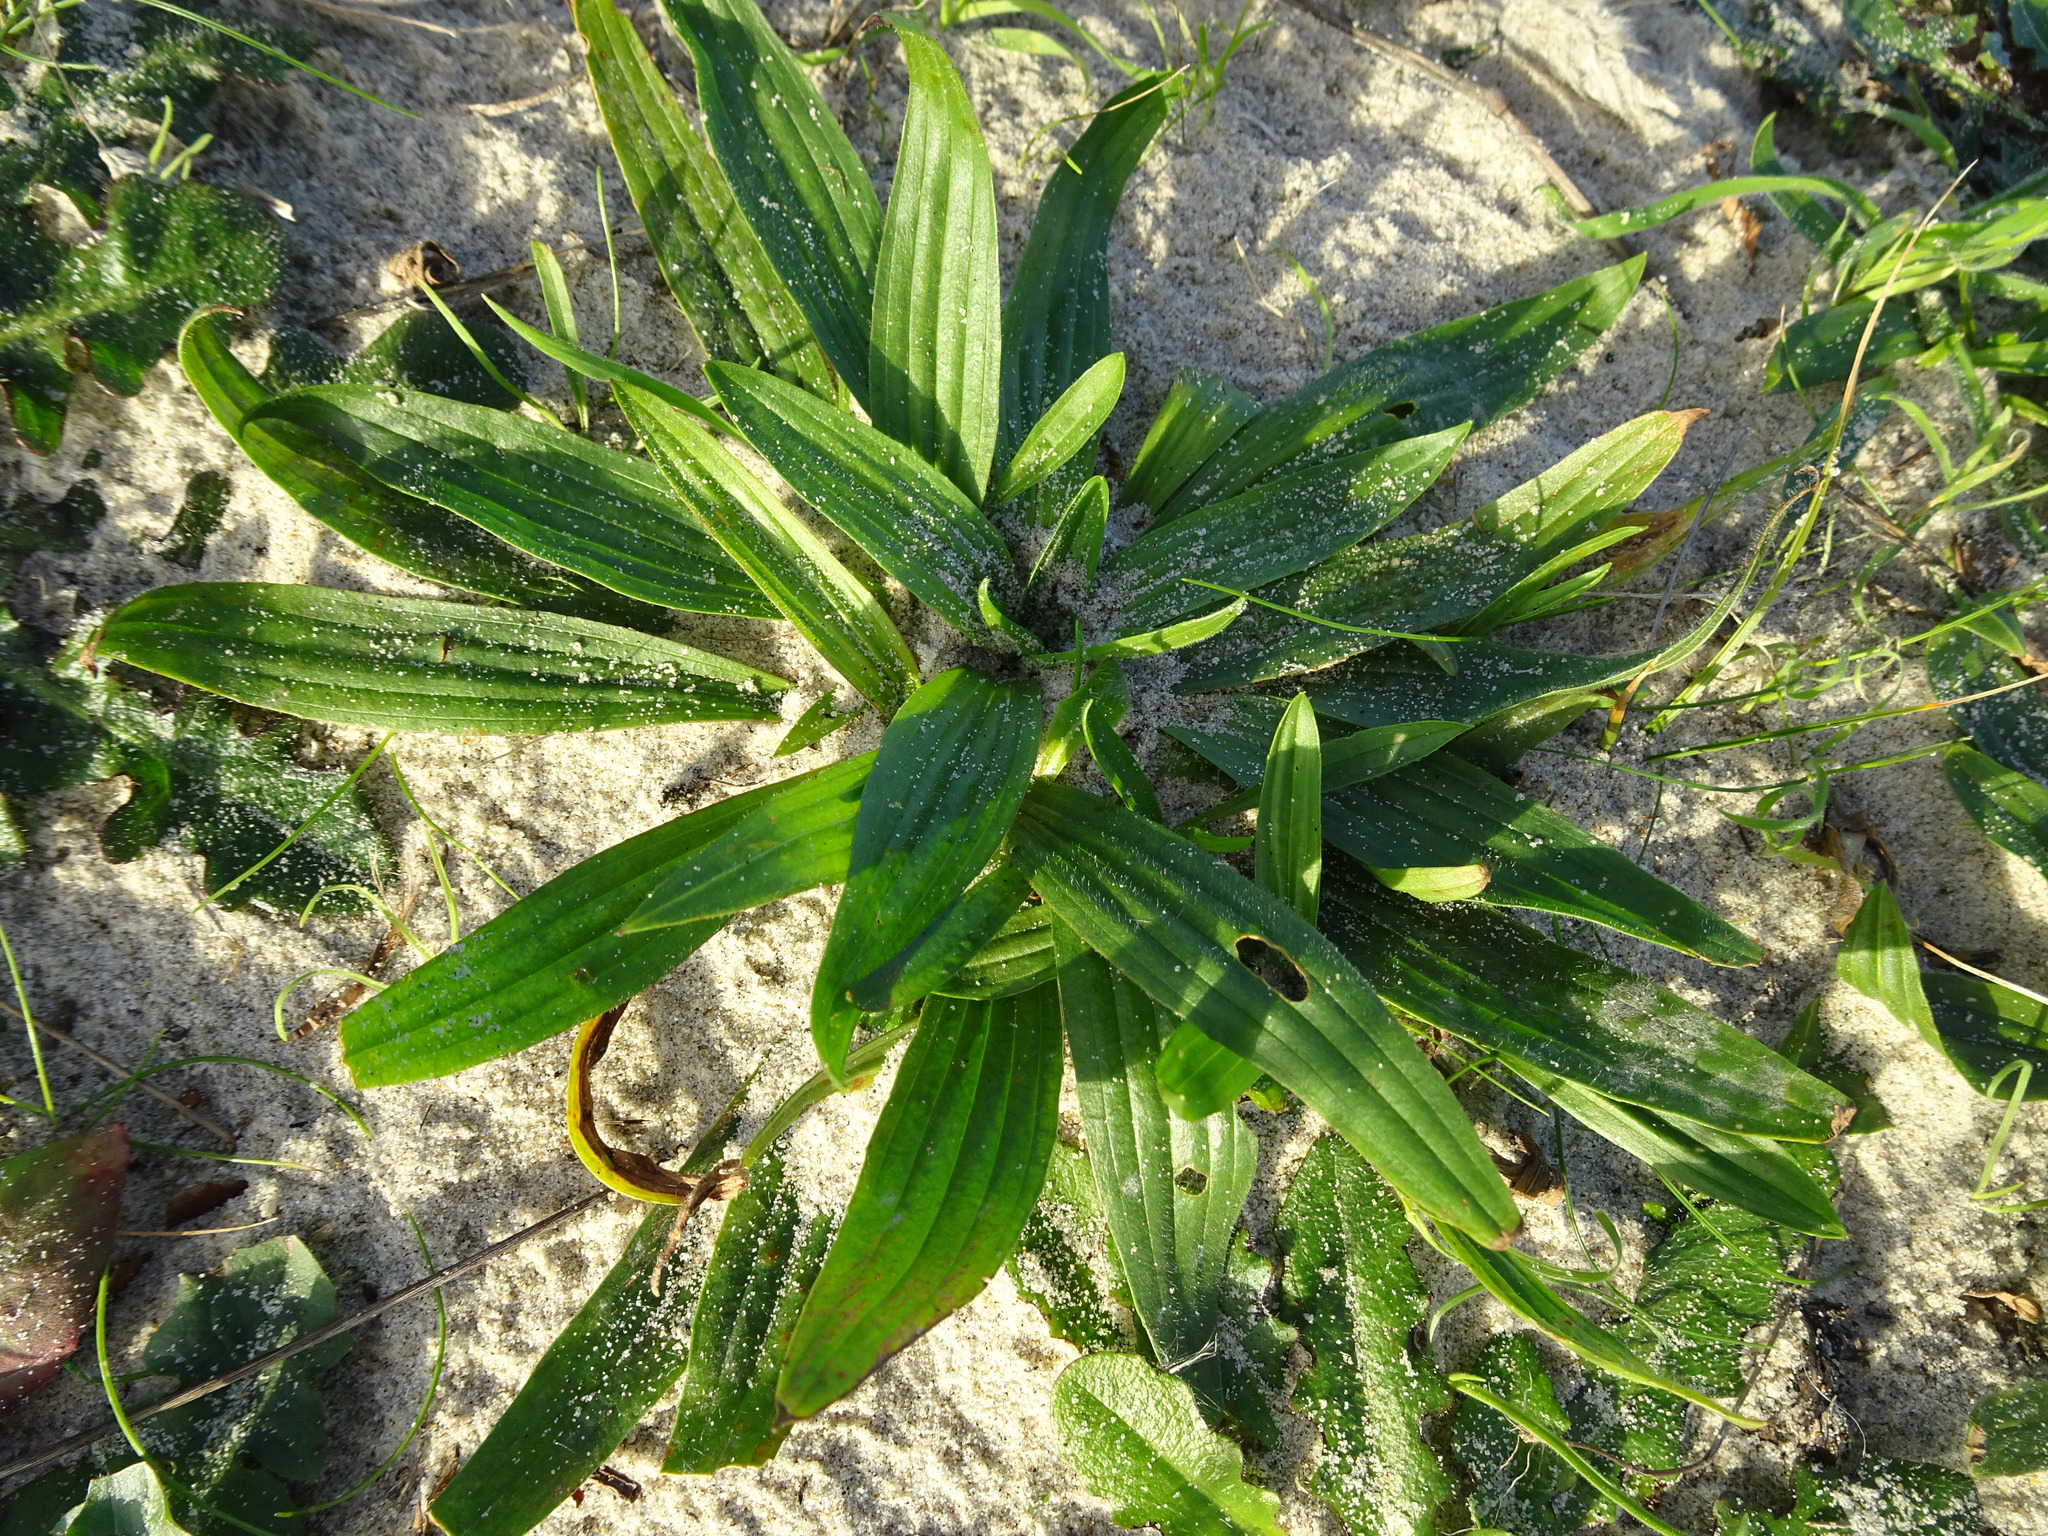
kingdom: Plantae
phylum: Tracheophyta
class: Magnoliopsida
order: Lamiales
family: Plantaginaceae
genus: Plantago
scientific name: Plantago lanceolata
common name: Ribwort plantain
